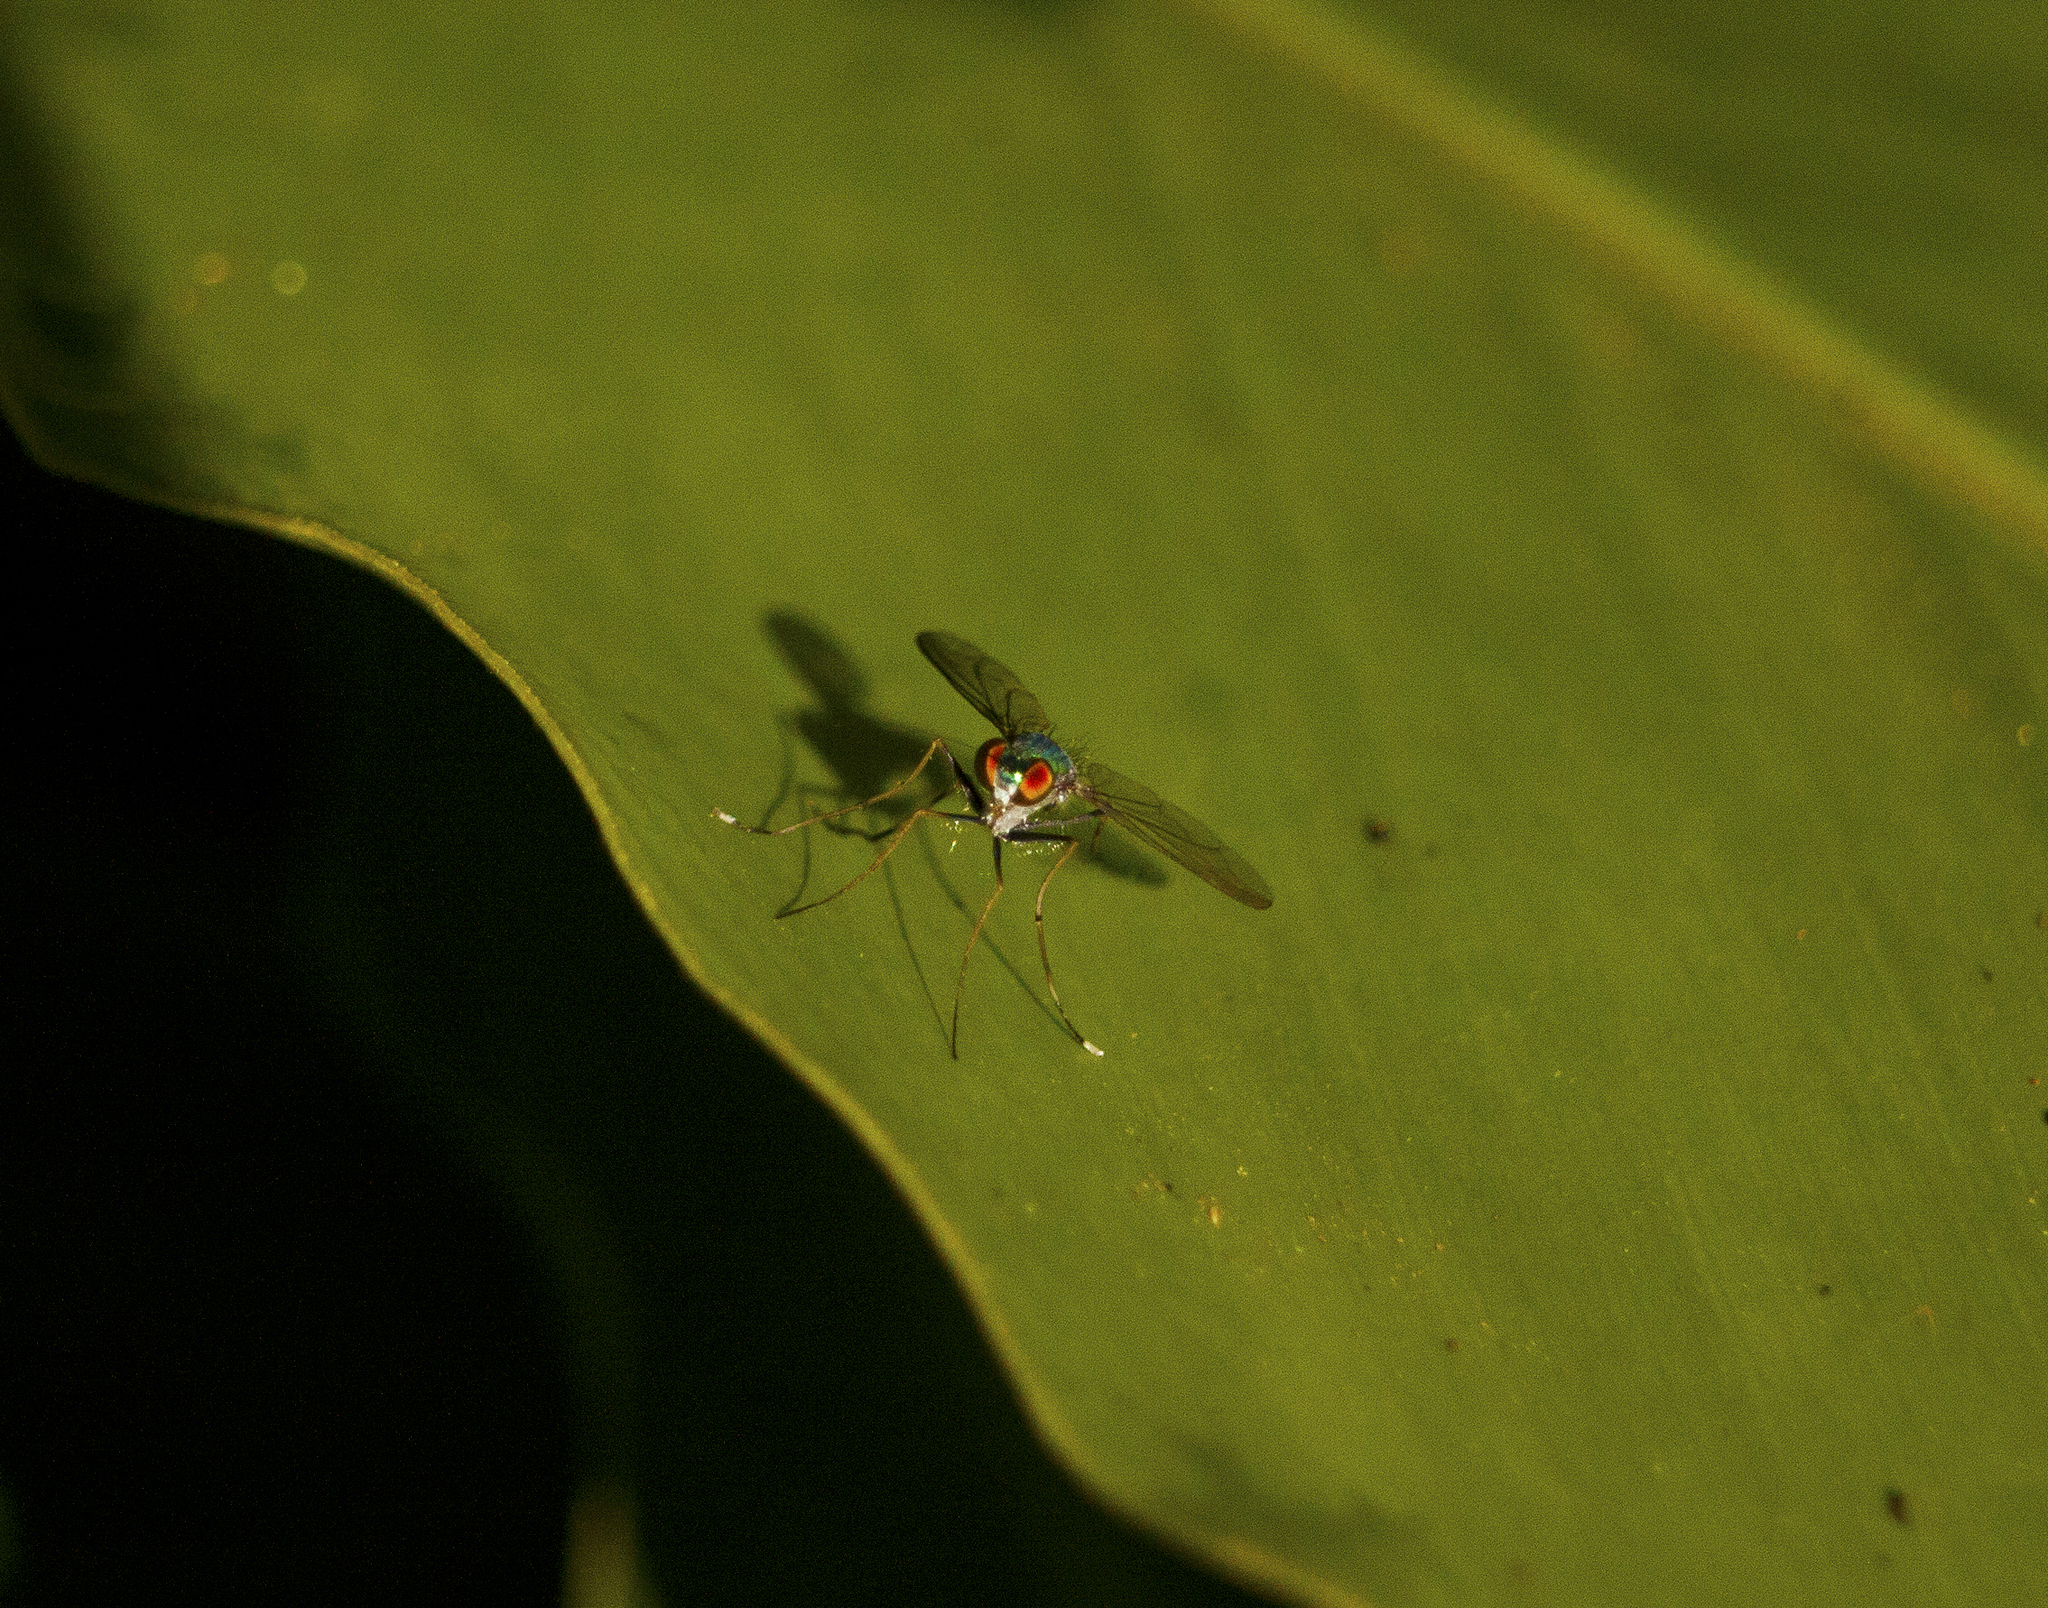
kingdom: Animalia
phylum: Arthropoda
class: Insecta
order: Diptera
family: Dolichopodidae
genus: Chrysosoma
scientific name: Chrysosoma leucopogon
